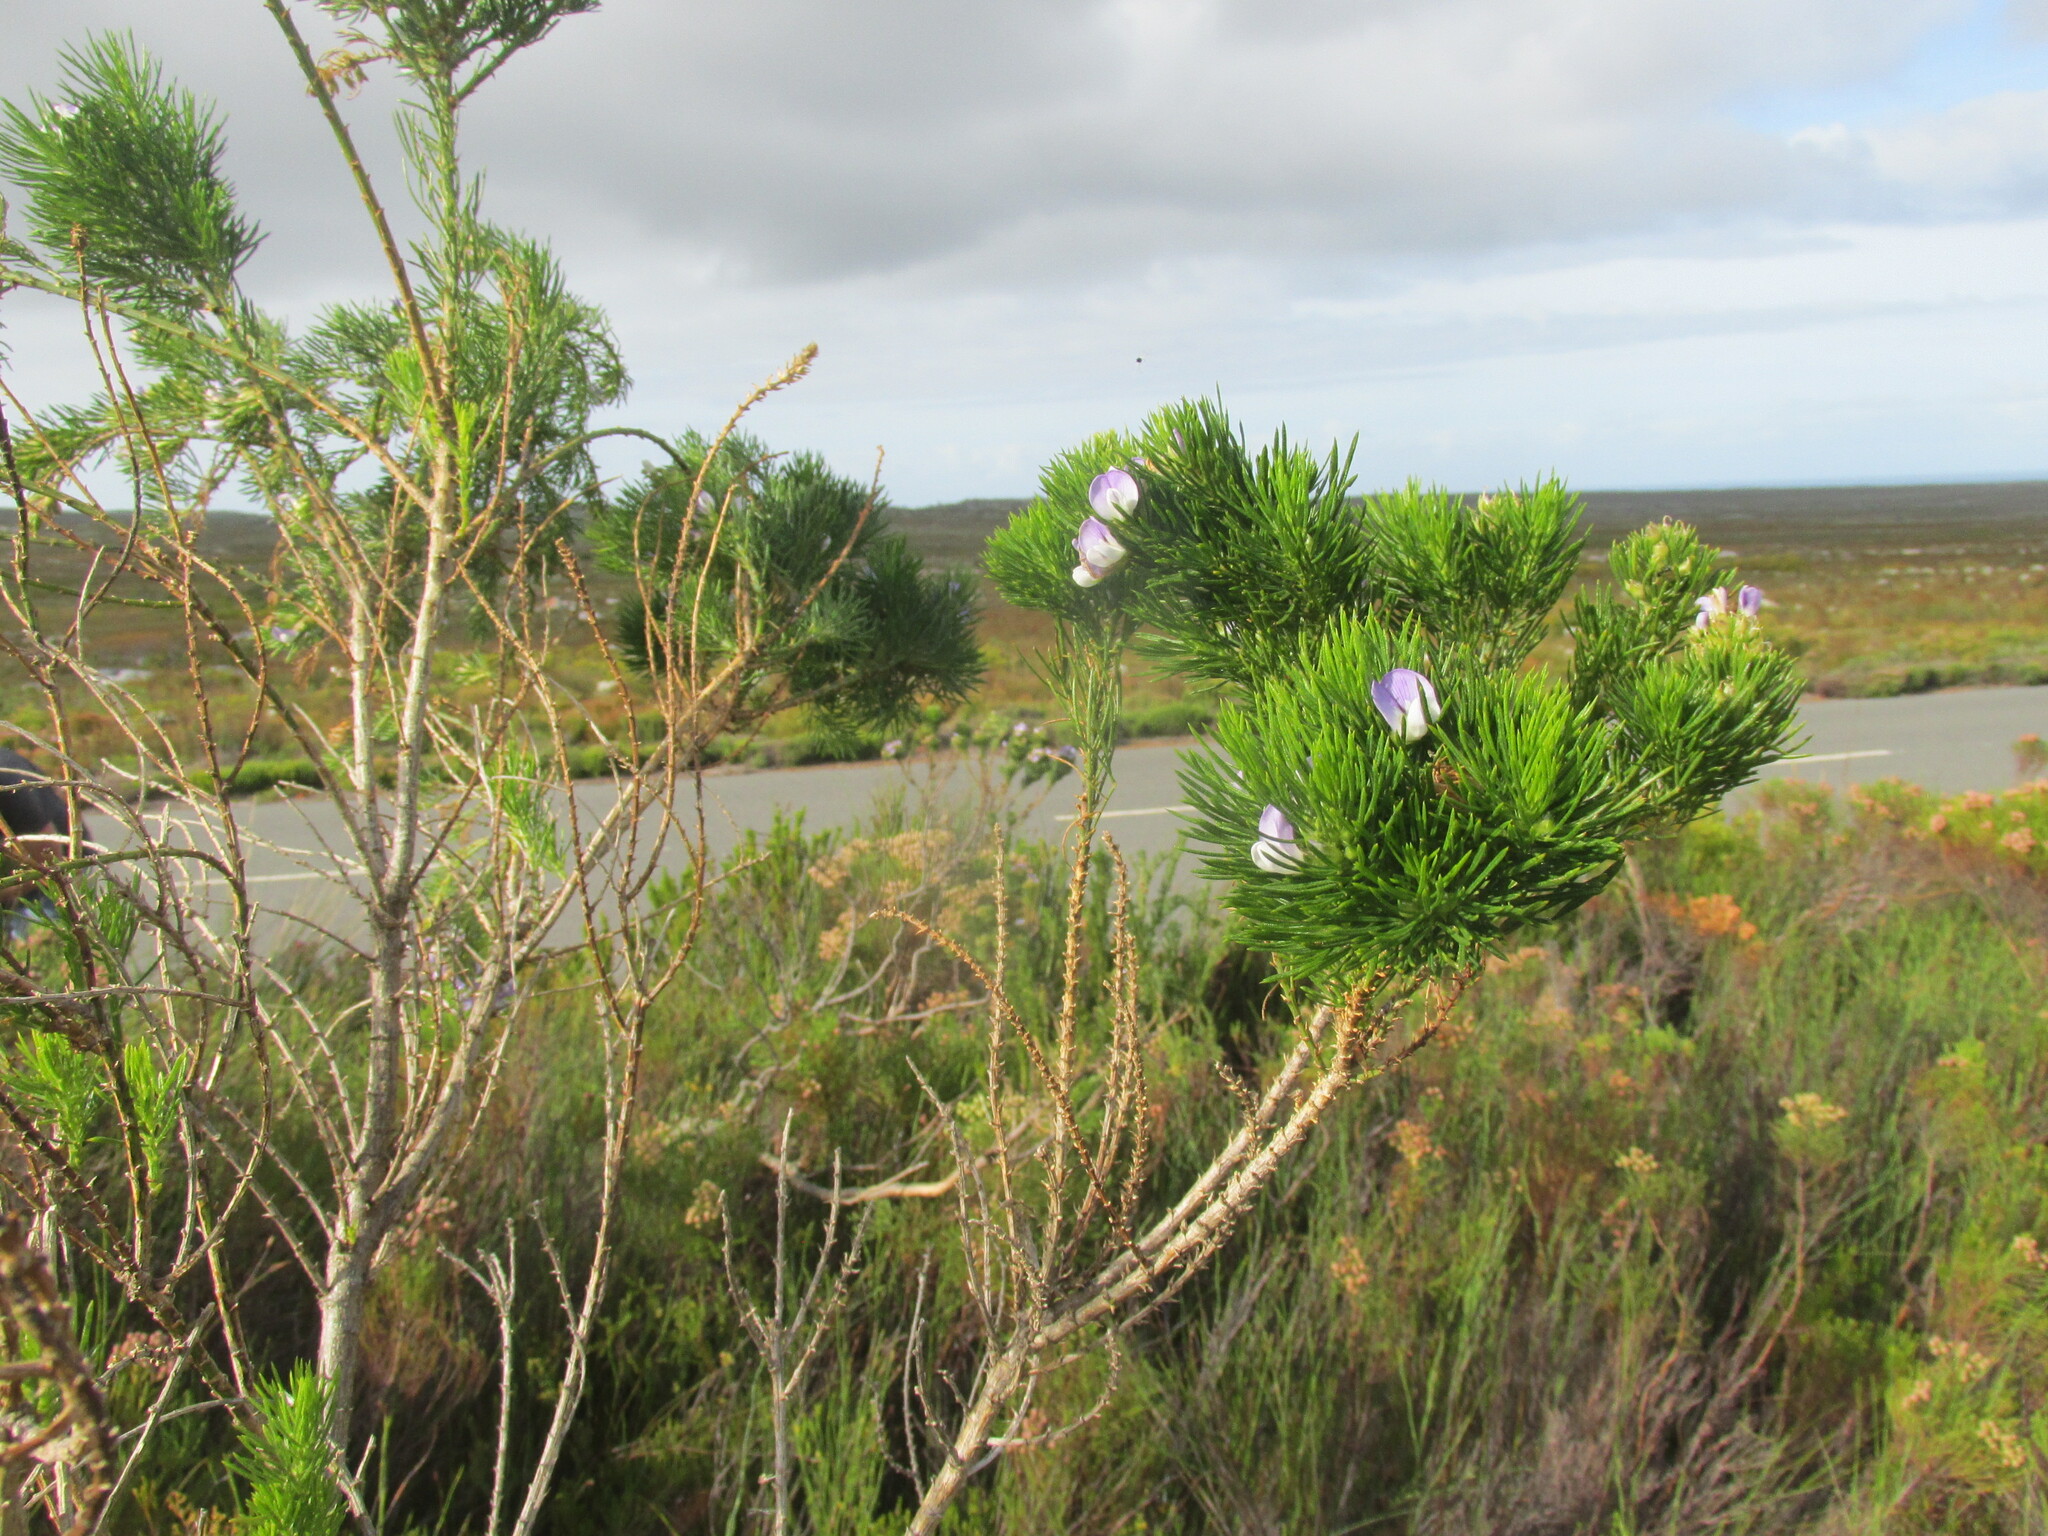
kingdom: Plantae
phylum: Tracheophyta
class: Magnoliopsida
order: Fabales
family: Fabaceae
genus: Psoralea
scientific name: Psoralea pinnata
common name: African scurfpea
